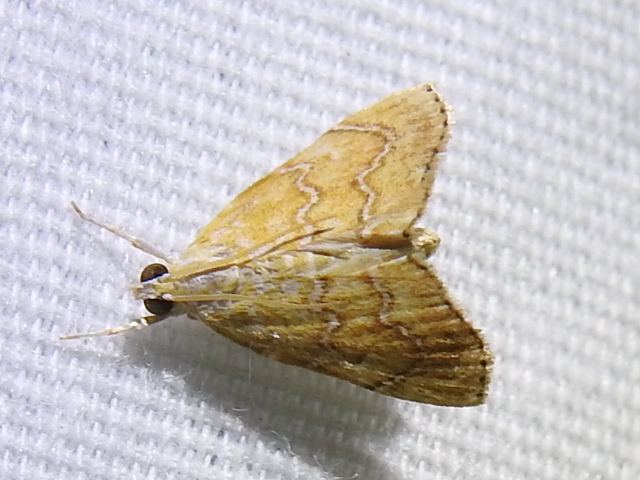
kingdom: Animalia
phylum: Arthropoda
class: Insecta
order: Lepidoptera
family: Crambidae
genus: Glaphyria
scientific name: Glaphyria sesquistrialis
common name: White-roped glaphyria
